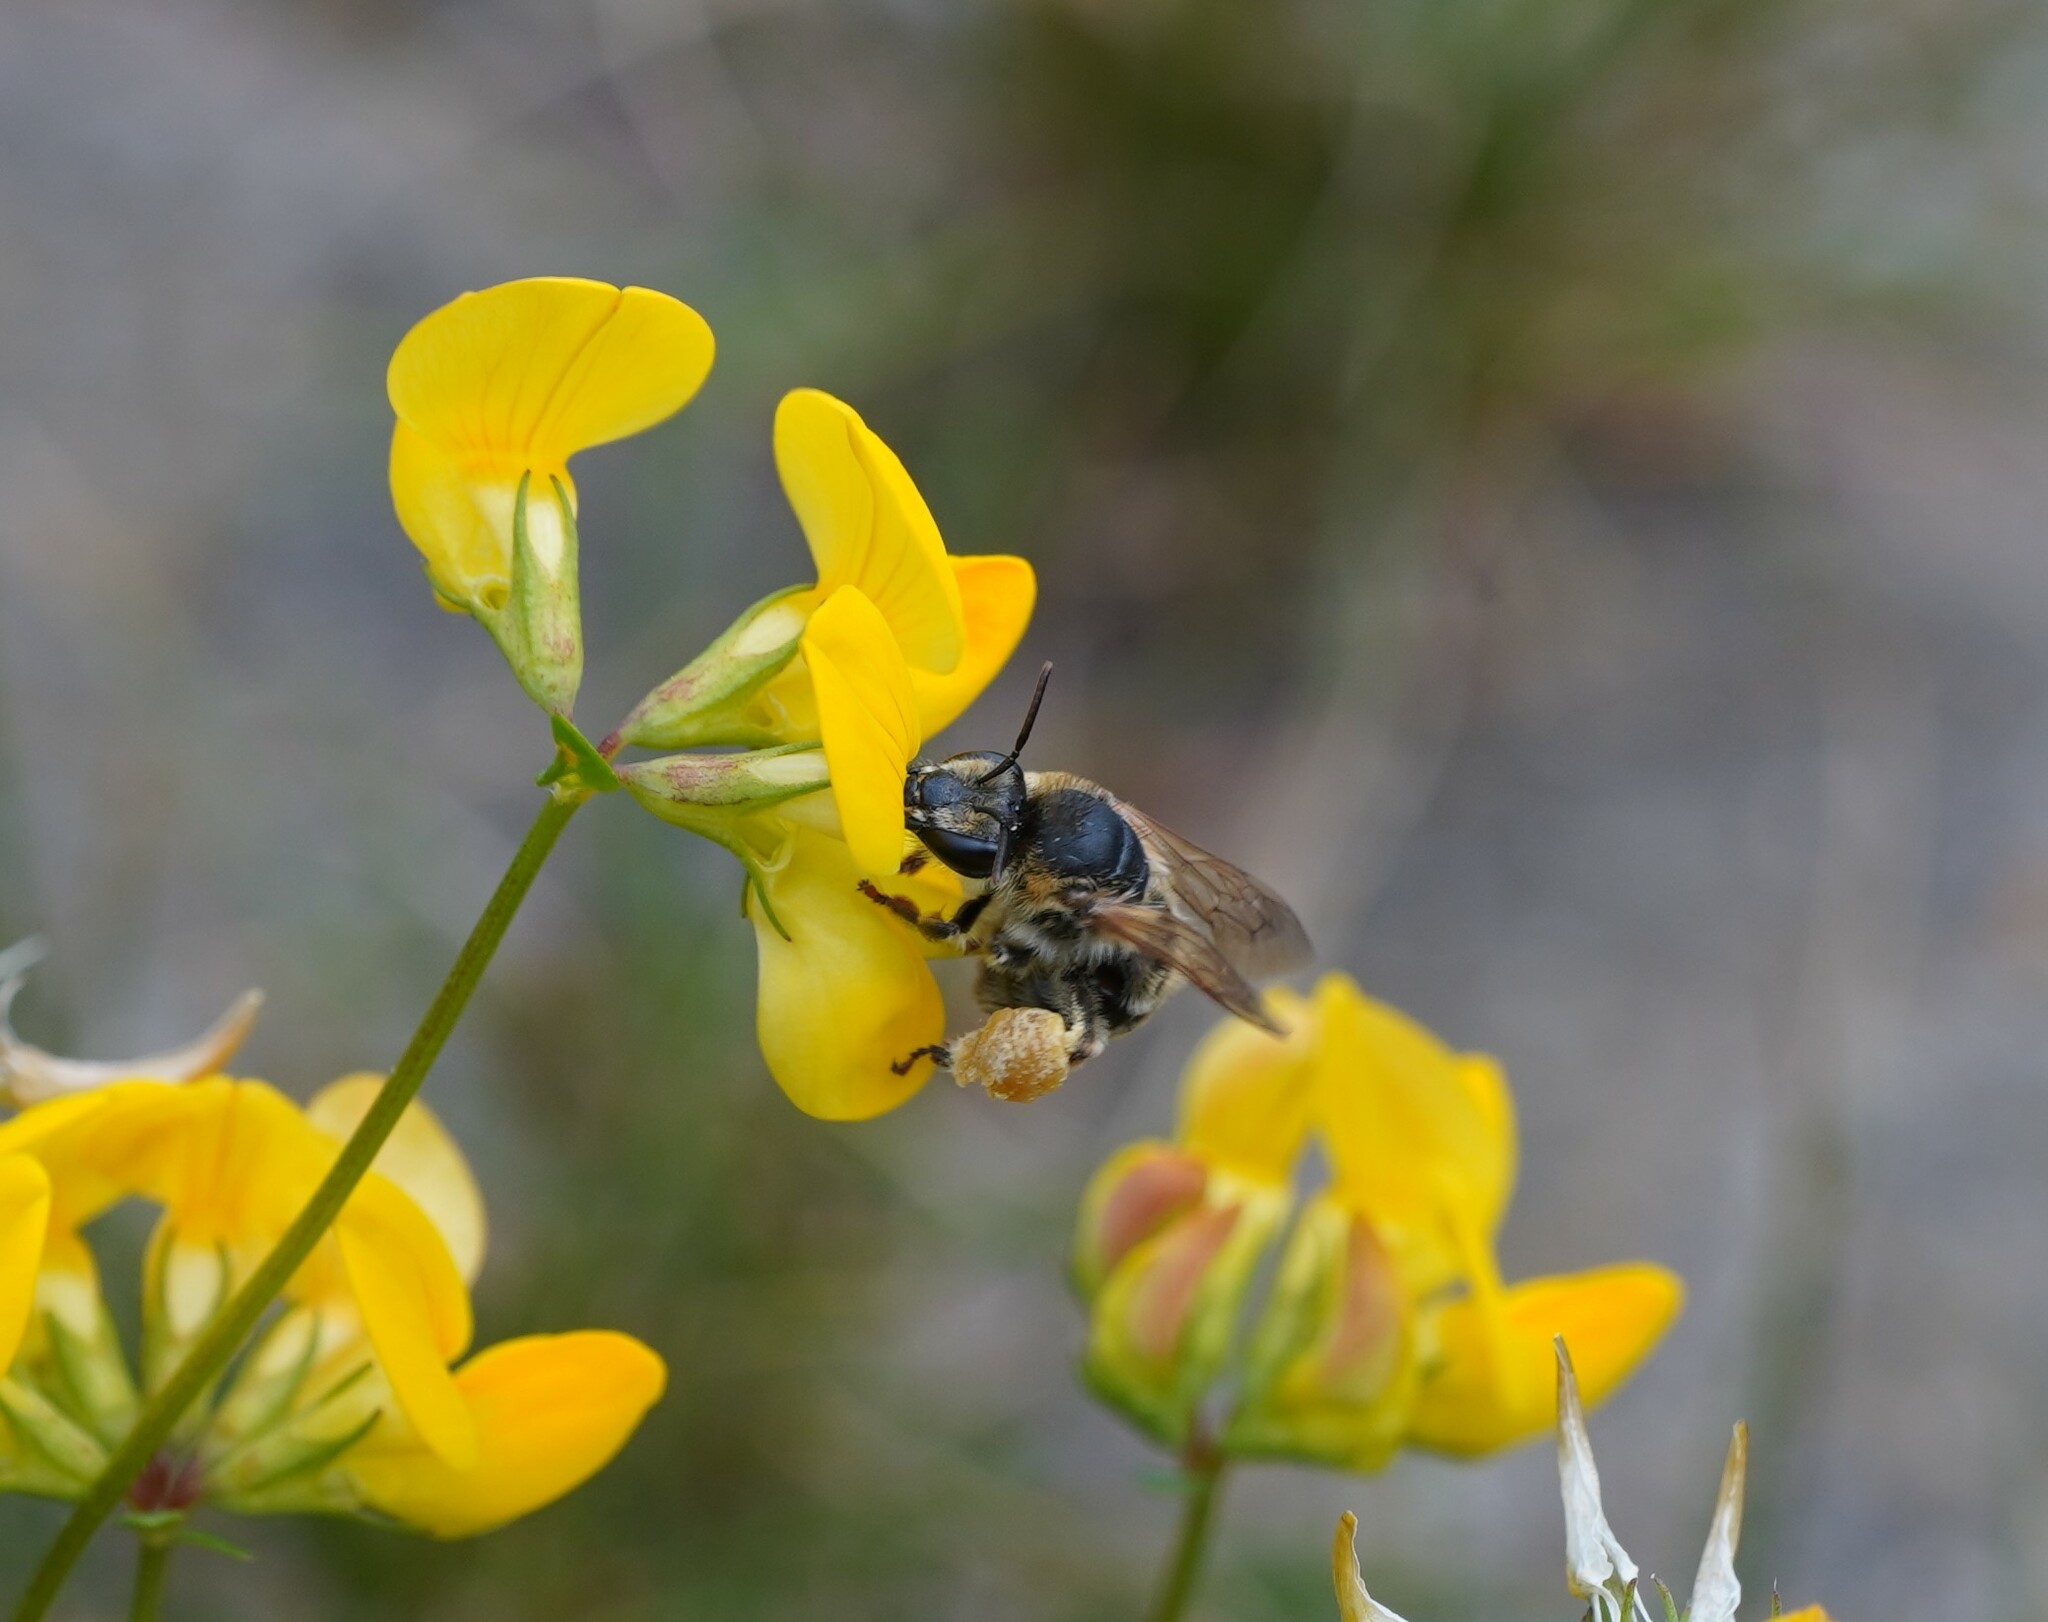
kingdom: Animalia
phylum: Arthropoda
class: Insecta
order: Hymenoptera
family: Melittidae
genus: Melitta
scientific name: Melitta leporina
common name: Clover melitta
